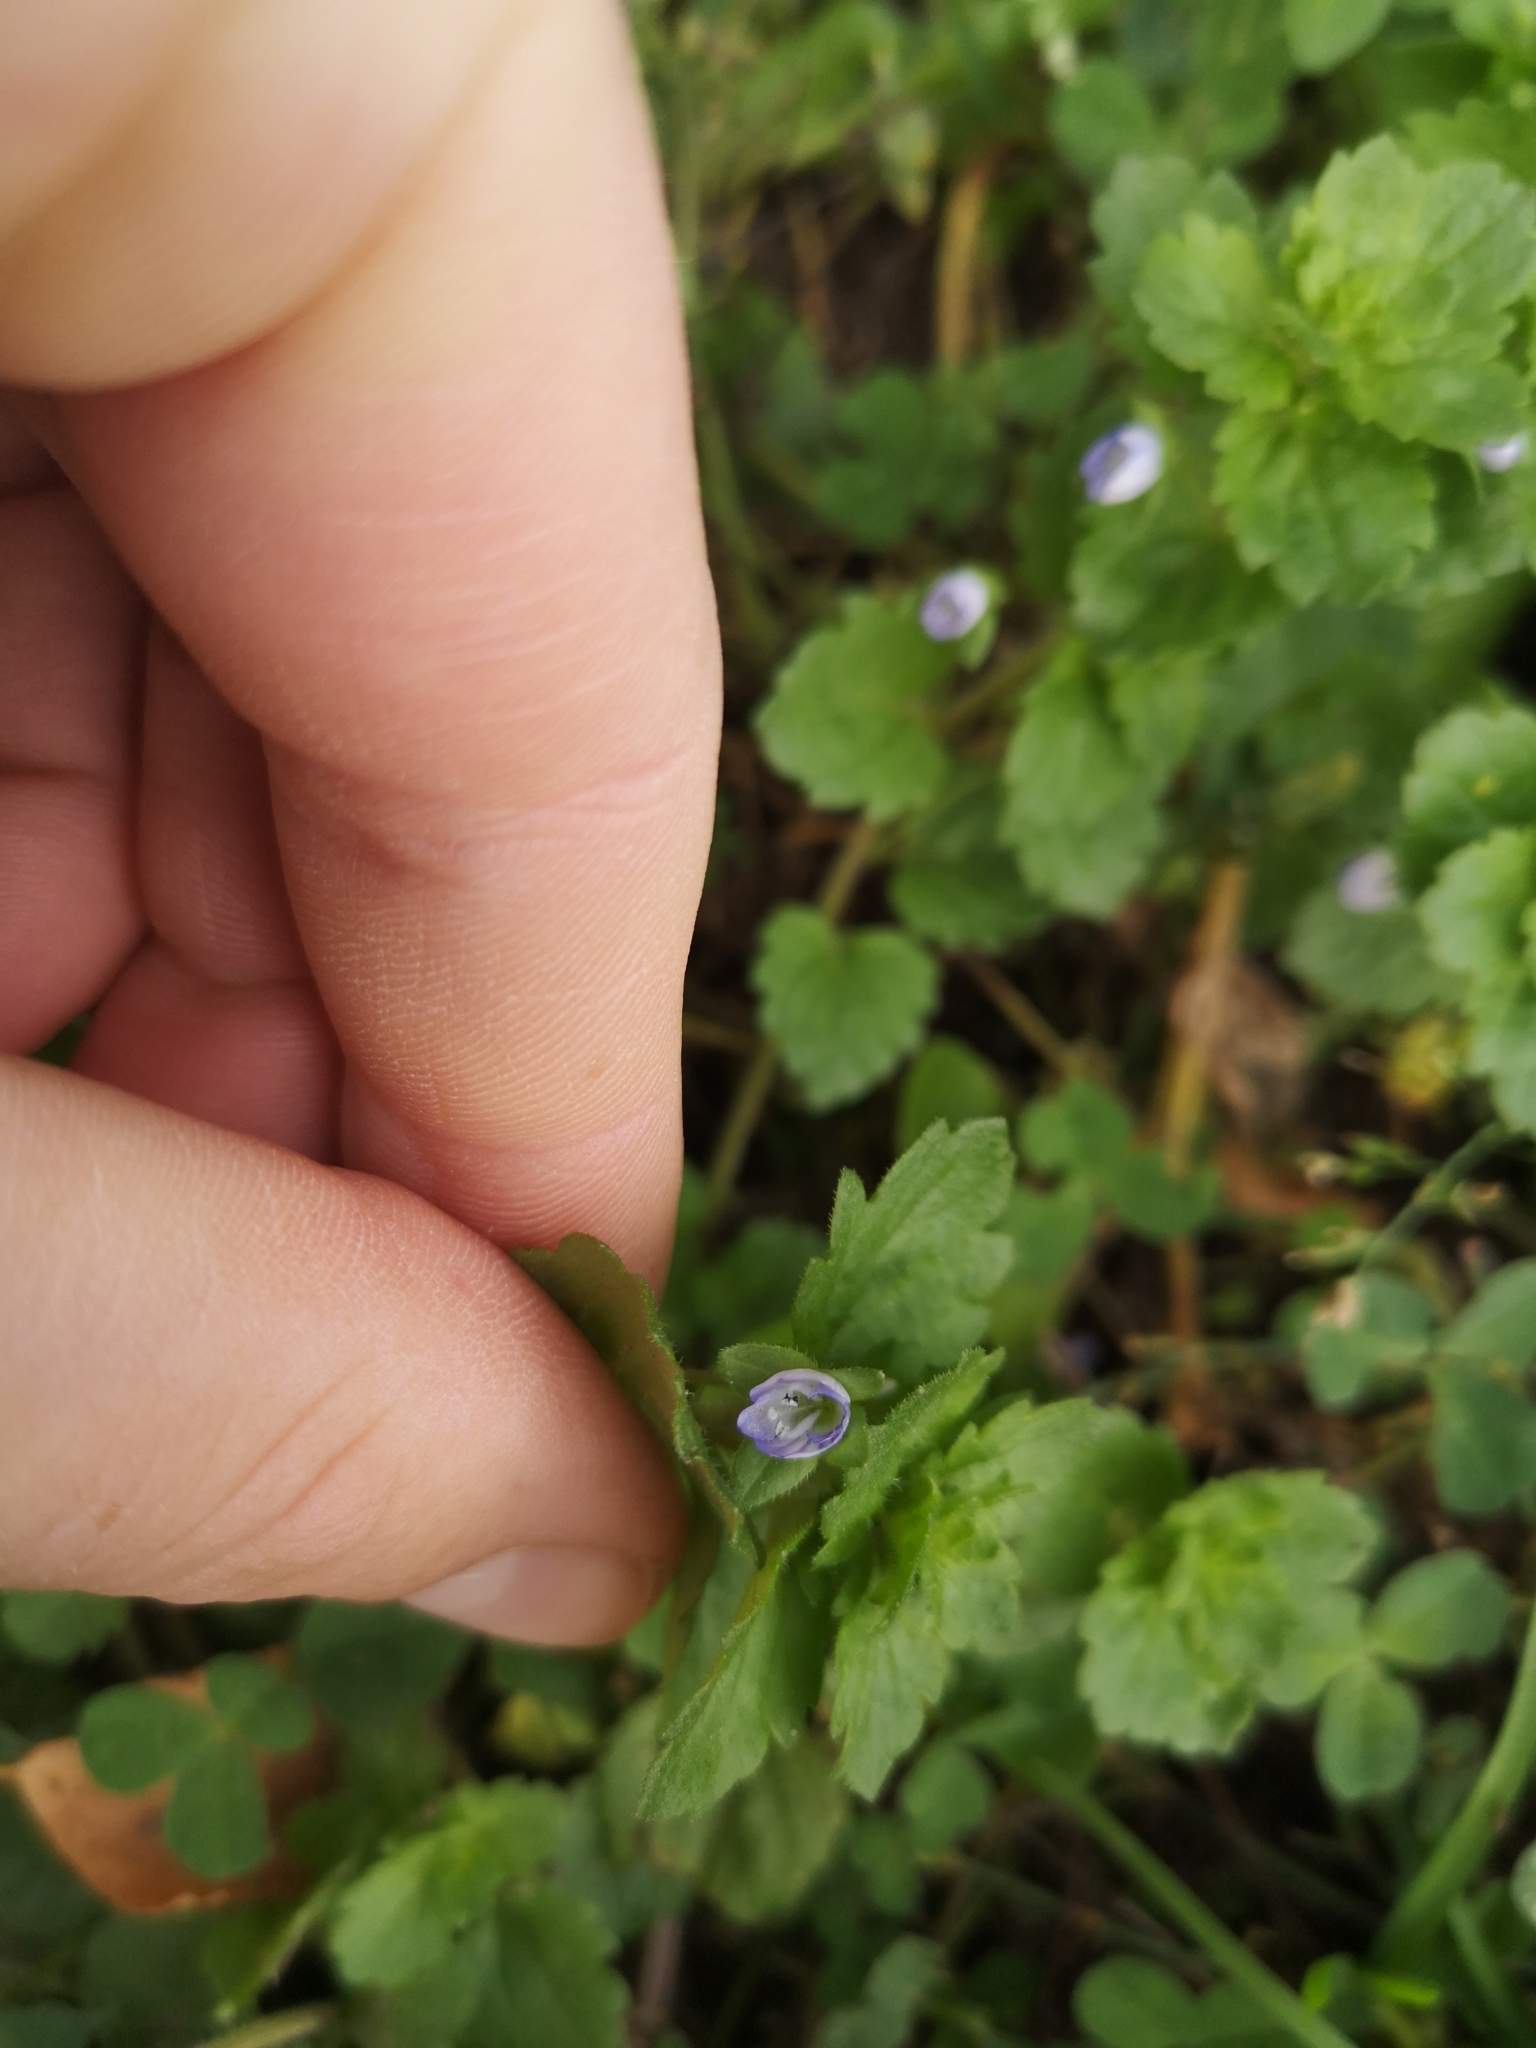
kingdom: Plantae
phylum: Tracheophyta
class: Magnoliopsida
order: Lamiales
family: Plantaginaceae
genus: Veronica
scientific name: Veronica persica
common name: Common field-speedwell
